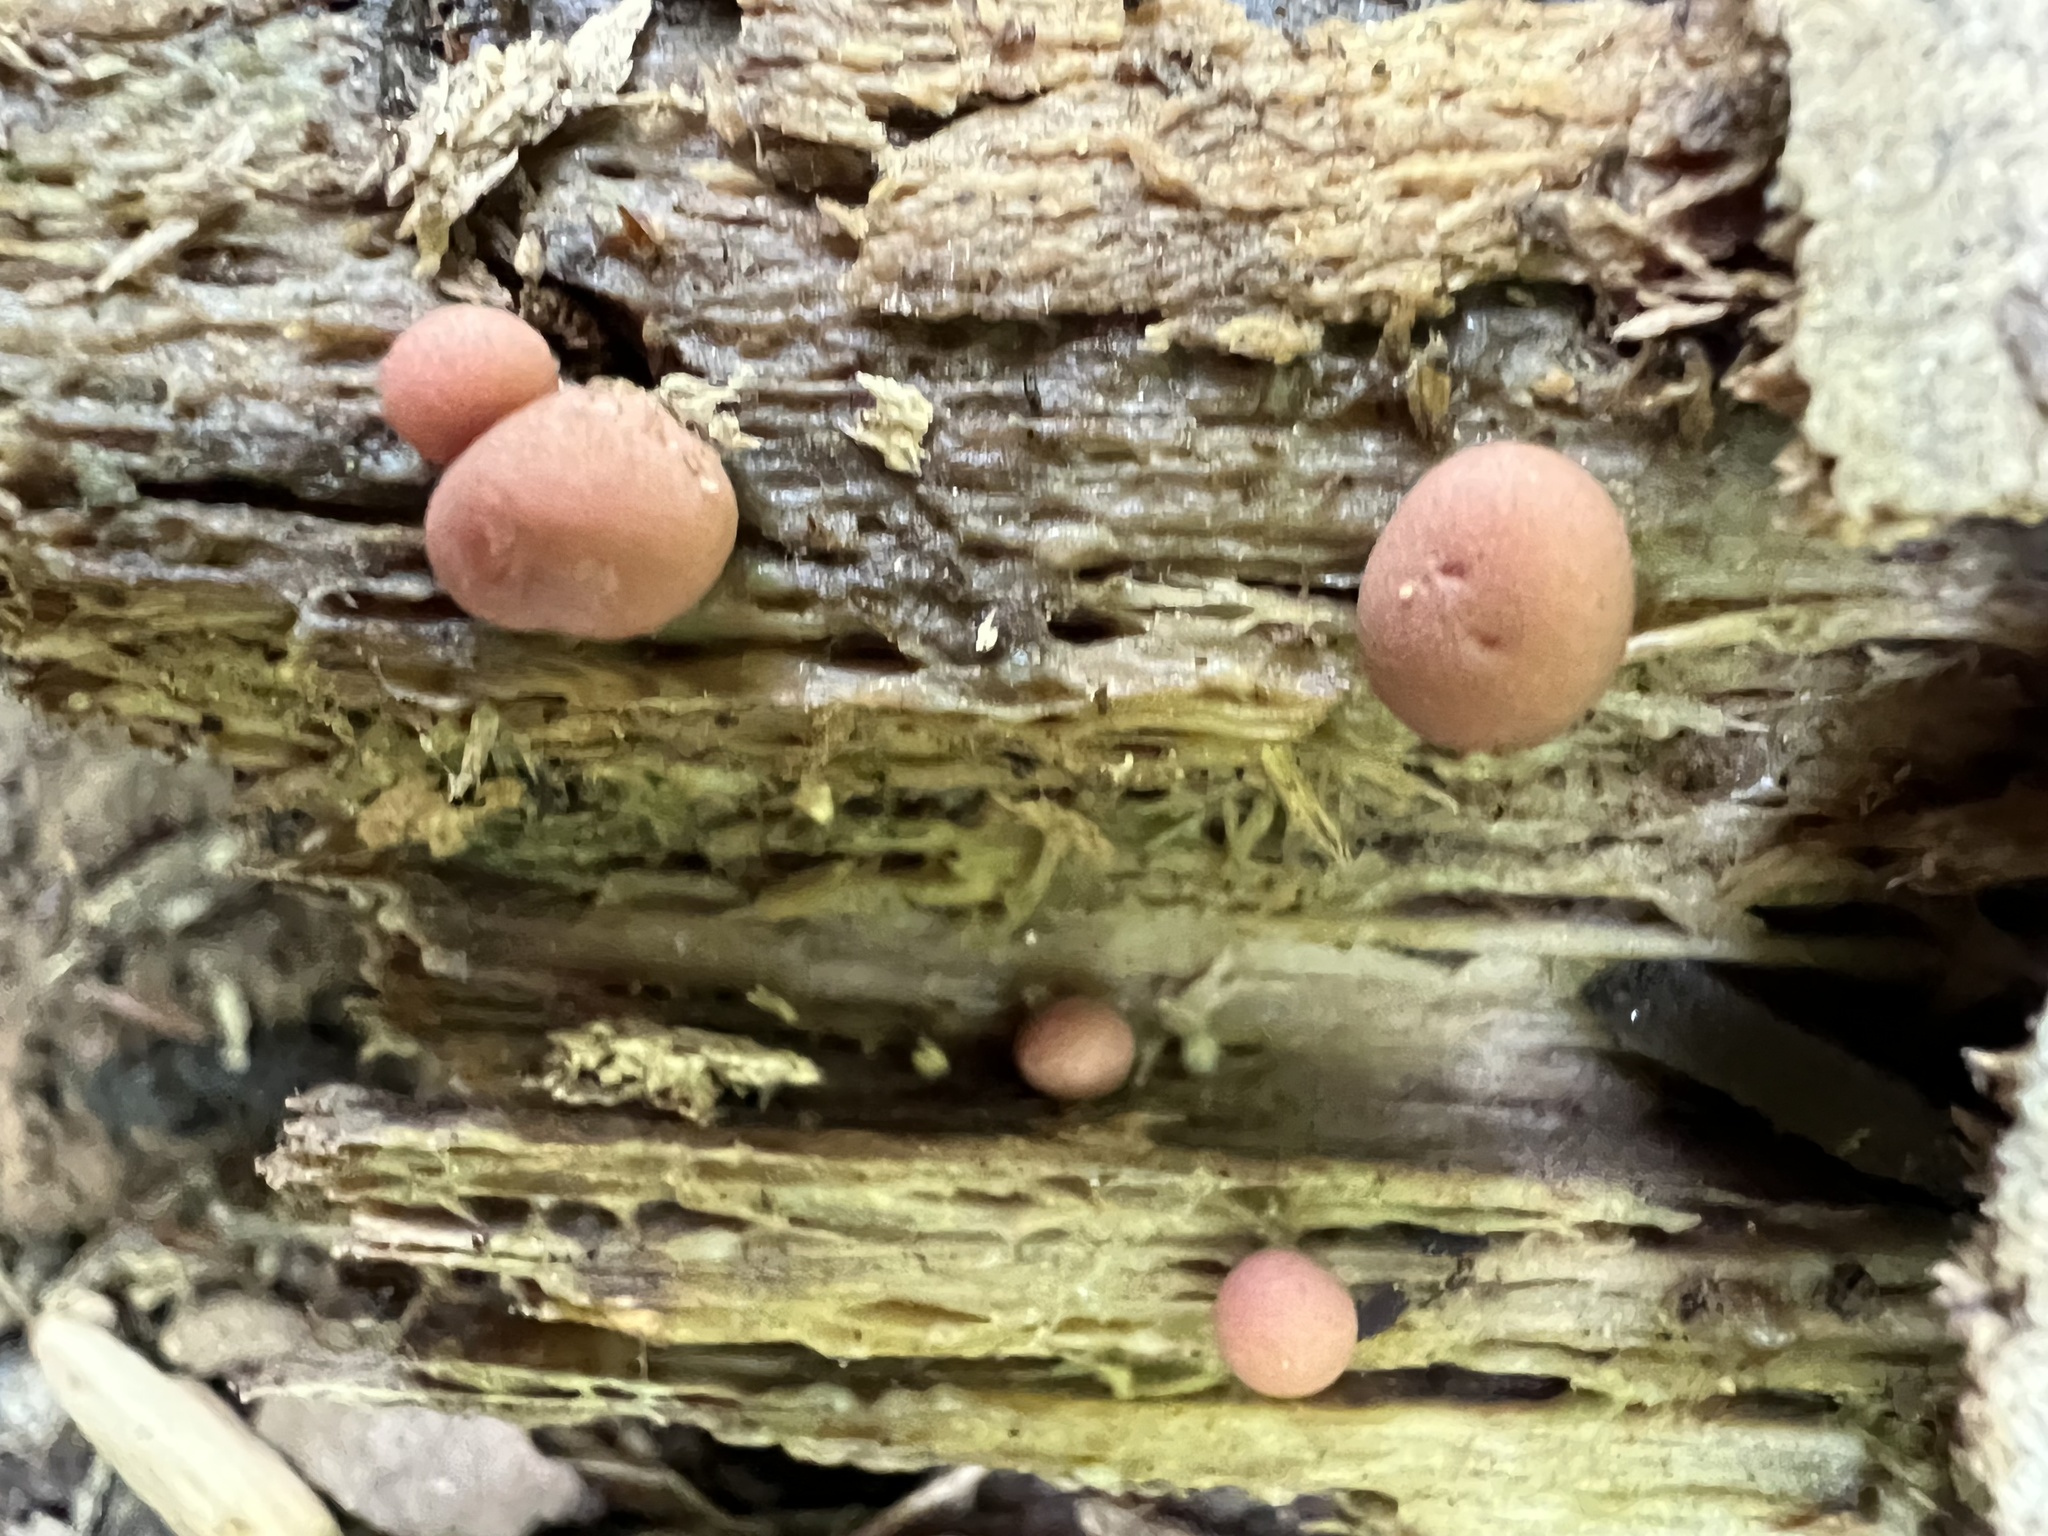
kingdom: Protozoa
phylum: Mycetozoa
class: Myxomycetes
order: Cribrariales
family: Tubiferaceae
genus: Lycogala
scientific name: Lycogala epidendrum
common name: Wolf's milk
